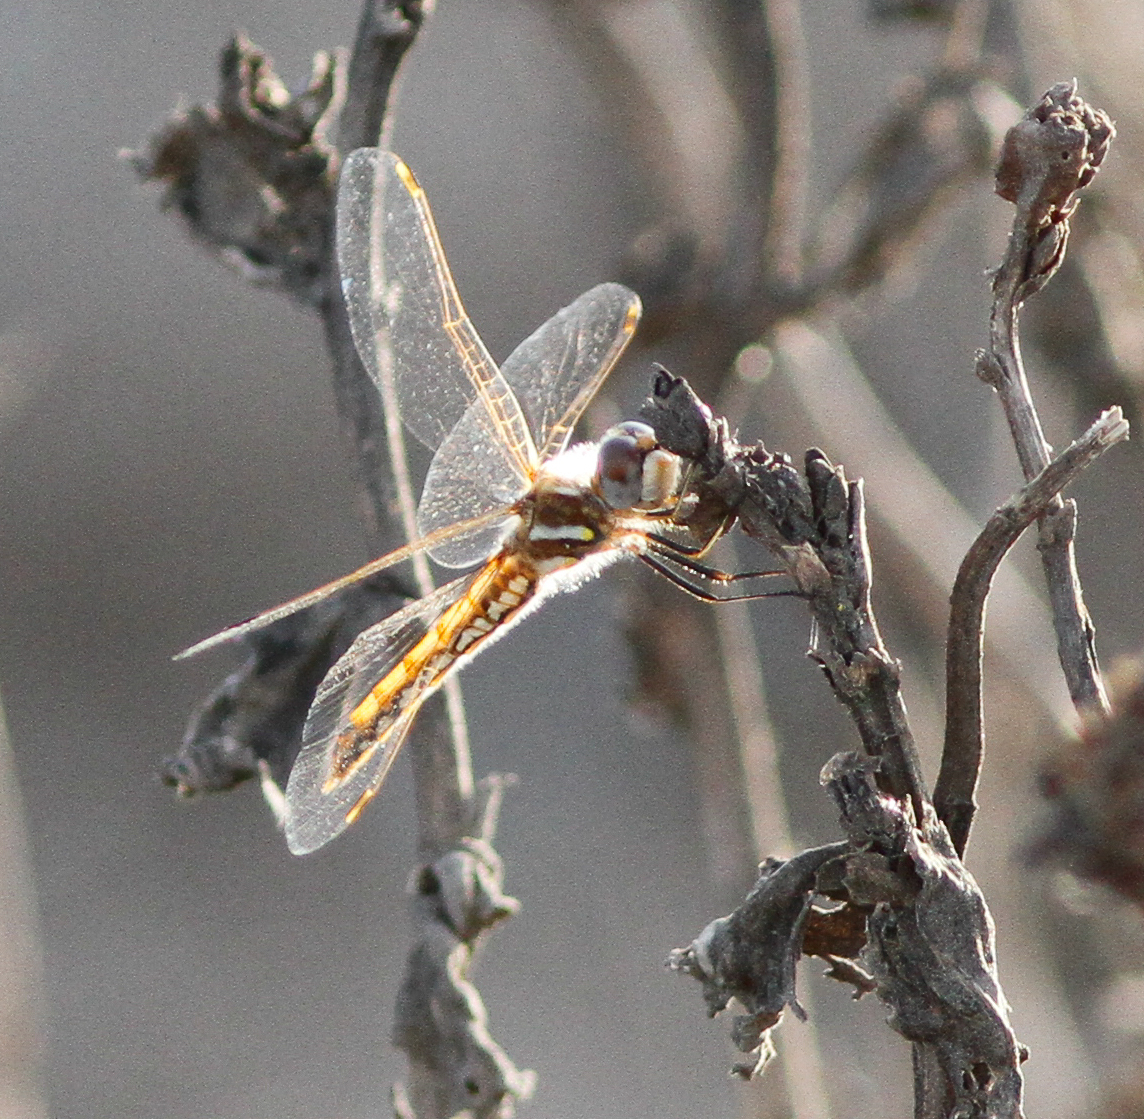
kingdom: Animalia
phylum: Arthropoda
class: Insecta
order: Odonata
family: Libellulidae
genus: Sympetrum
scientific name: Sympetrum corruptum
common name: Variegated meadowhawk
